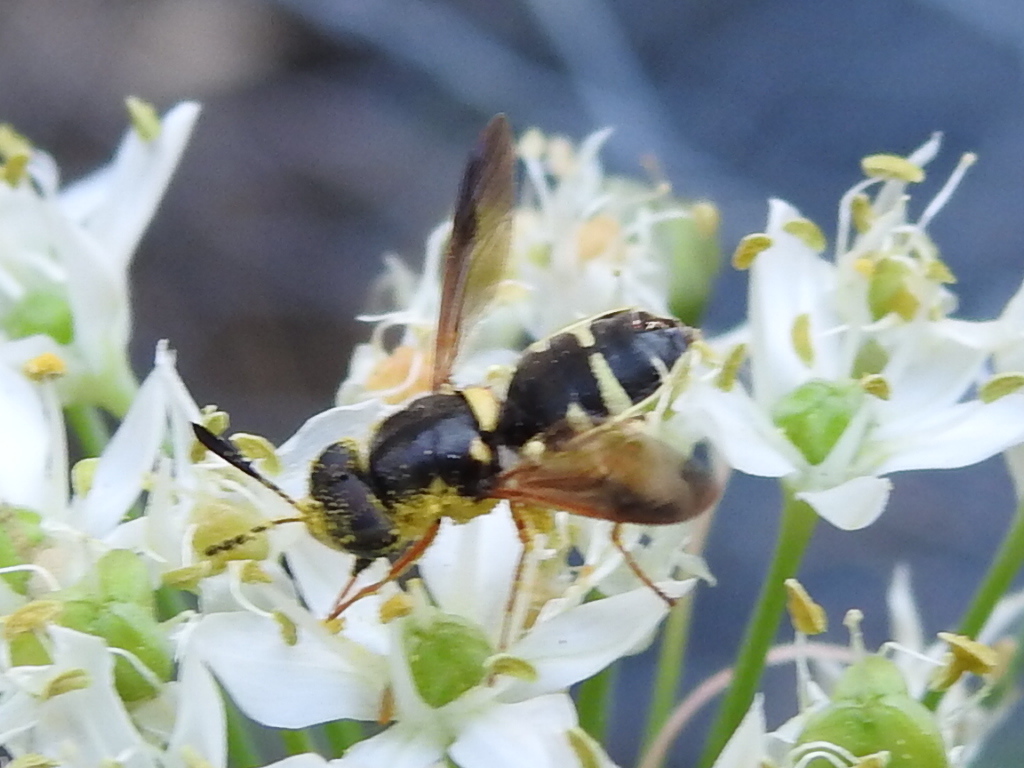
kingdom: Animalia
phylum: Arthropoda
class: Insecta
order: Diptera
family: Stratiomyidae
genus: Hoplitimyia
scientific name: Hoplitimyia constans
